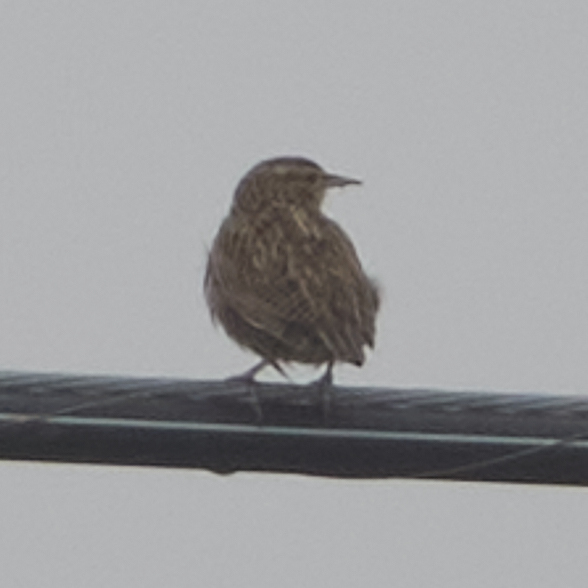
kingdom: Animalia
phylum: Chordata
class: Aves
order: Passeriformes
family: Icteridae
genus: Sturnella
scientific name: Sturnella neglecta
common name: Western meadowlark
